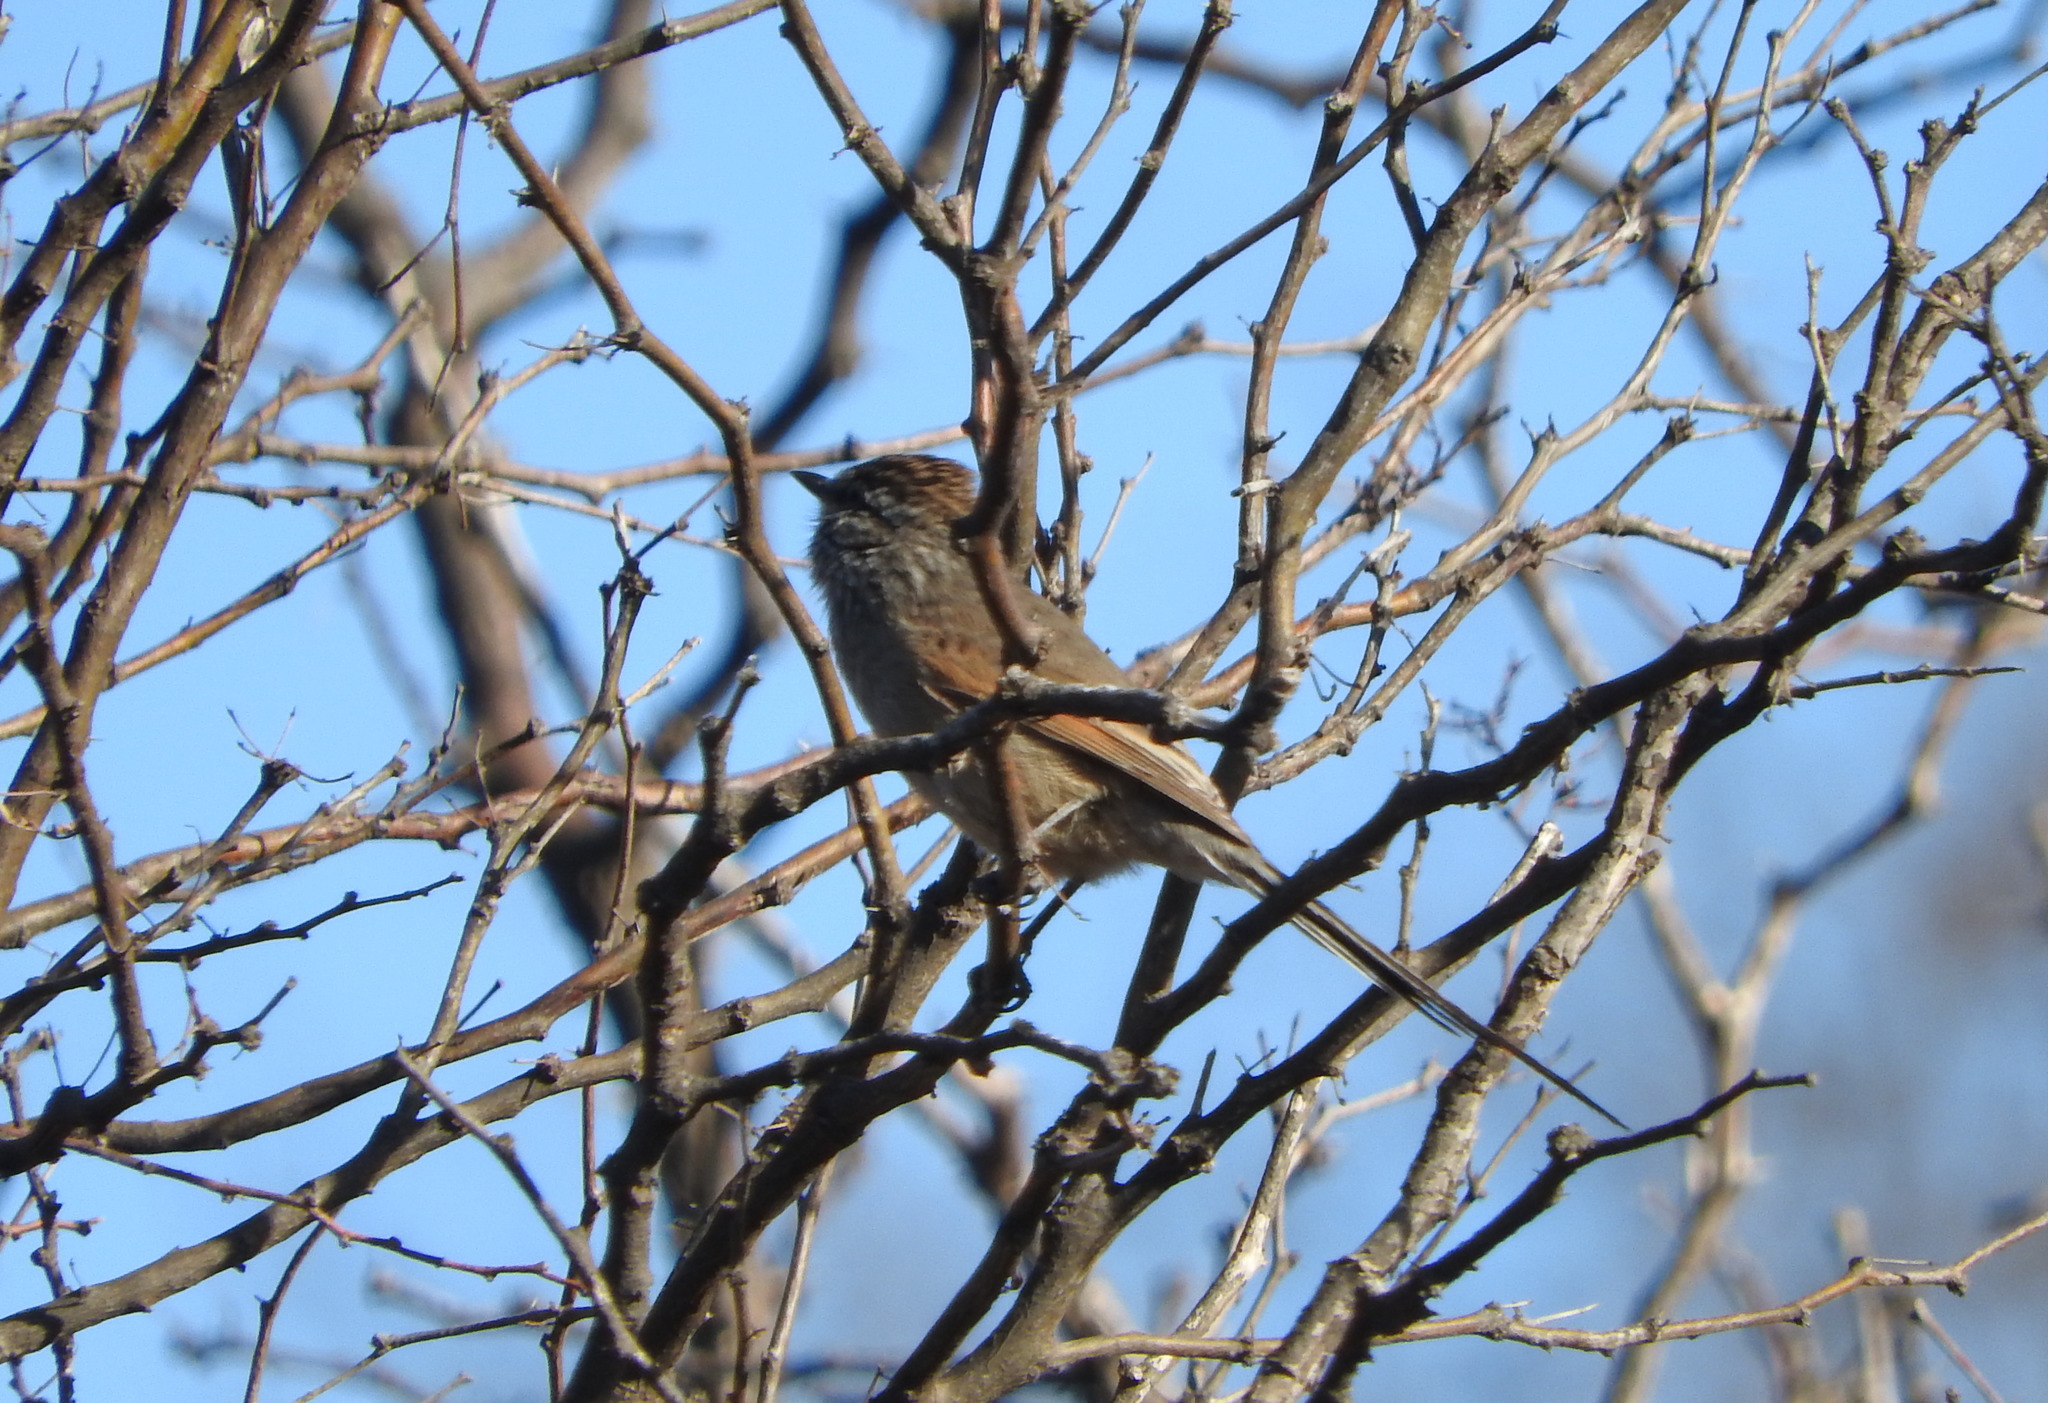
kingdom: Animalia
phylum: Chordata
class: Aves
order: Passeriformes
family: Furnariidae
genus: Leptasthenura
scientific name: Leptasthenura aegithaloides
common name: Plain-mantled tit-spinetail
